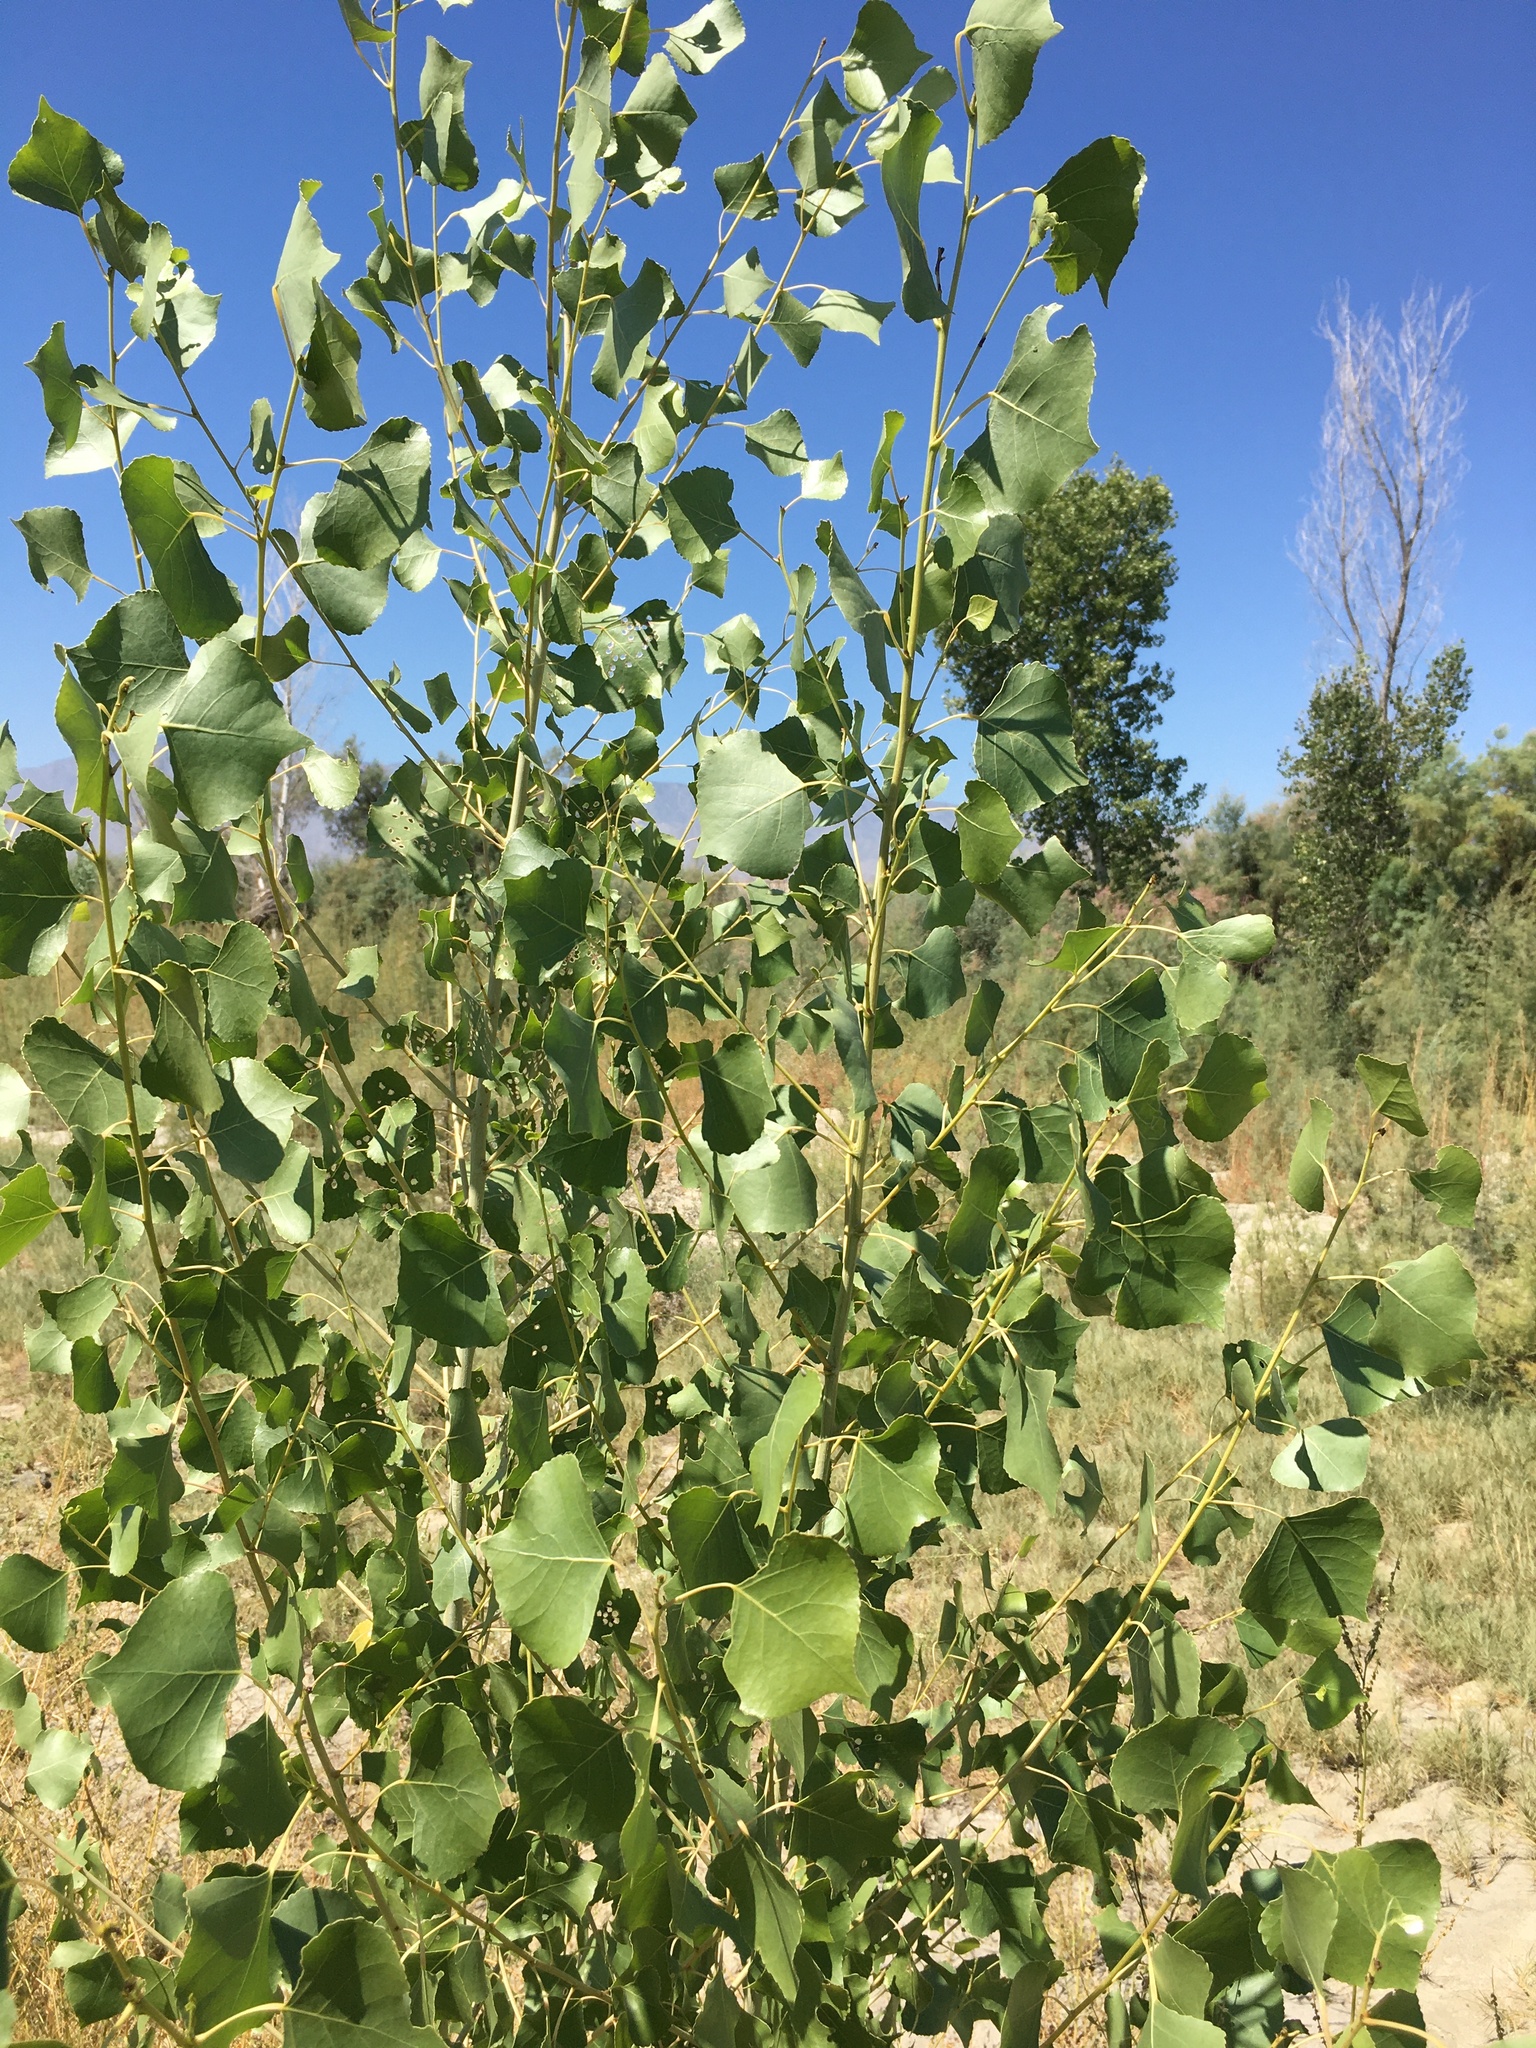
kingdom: Plantae
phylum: Tracheophyta
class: Magnoliopsida
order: Malpighiales
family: Salicaceae
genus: Populus
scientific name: Populus fremontii
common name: Fremont's cottonwood
